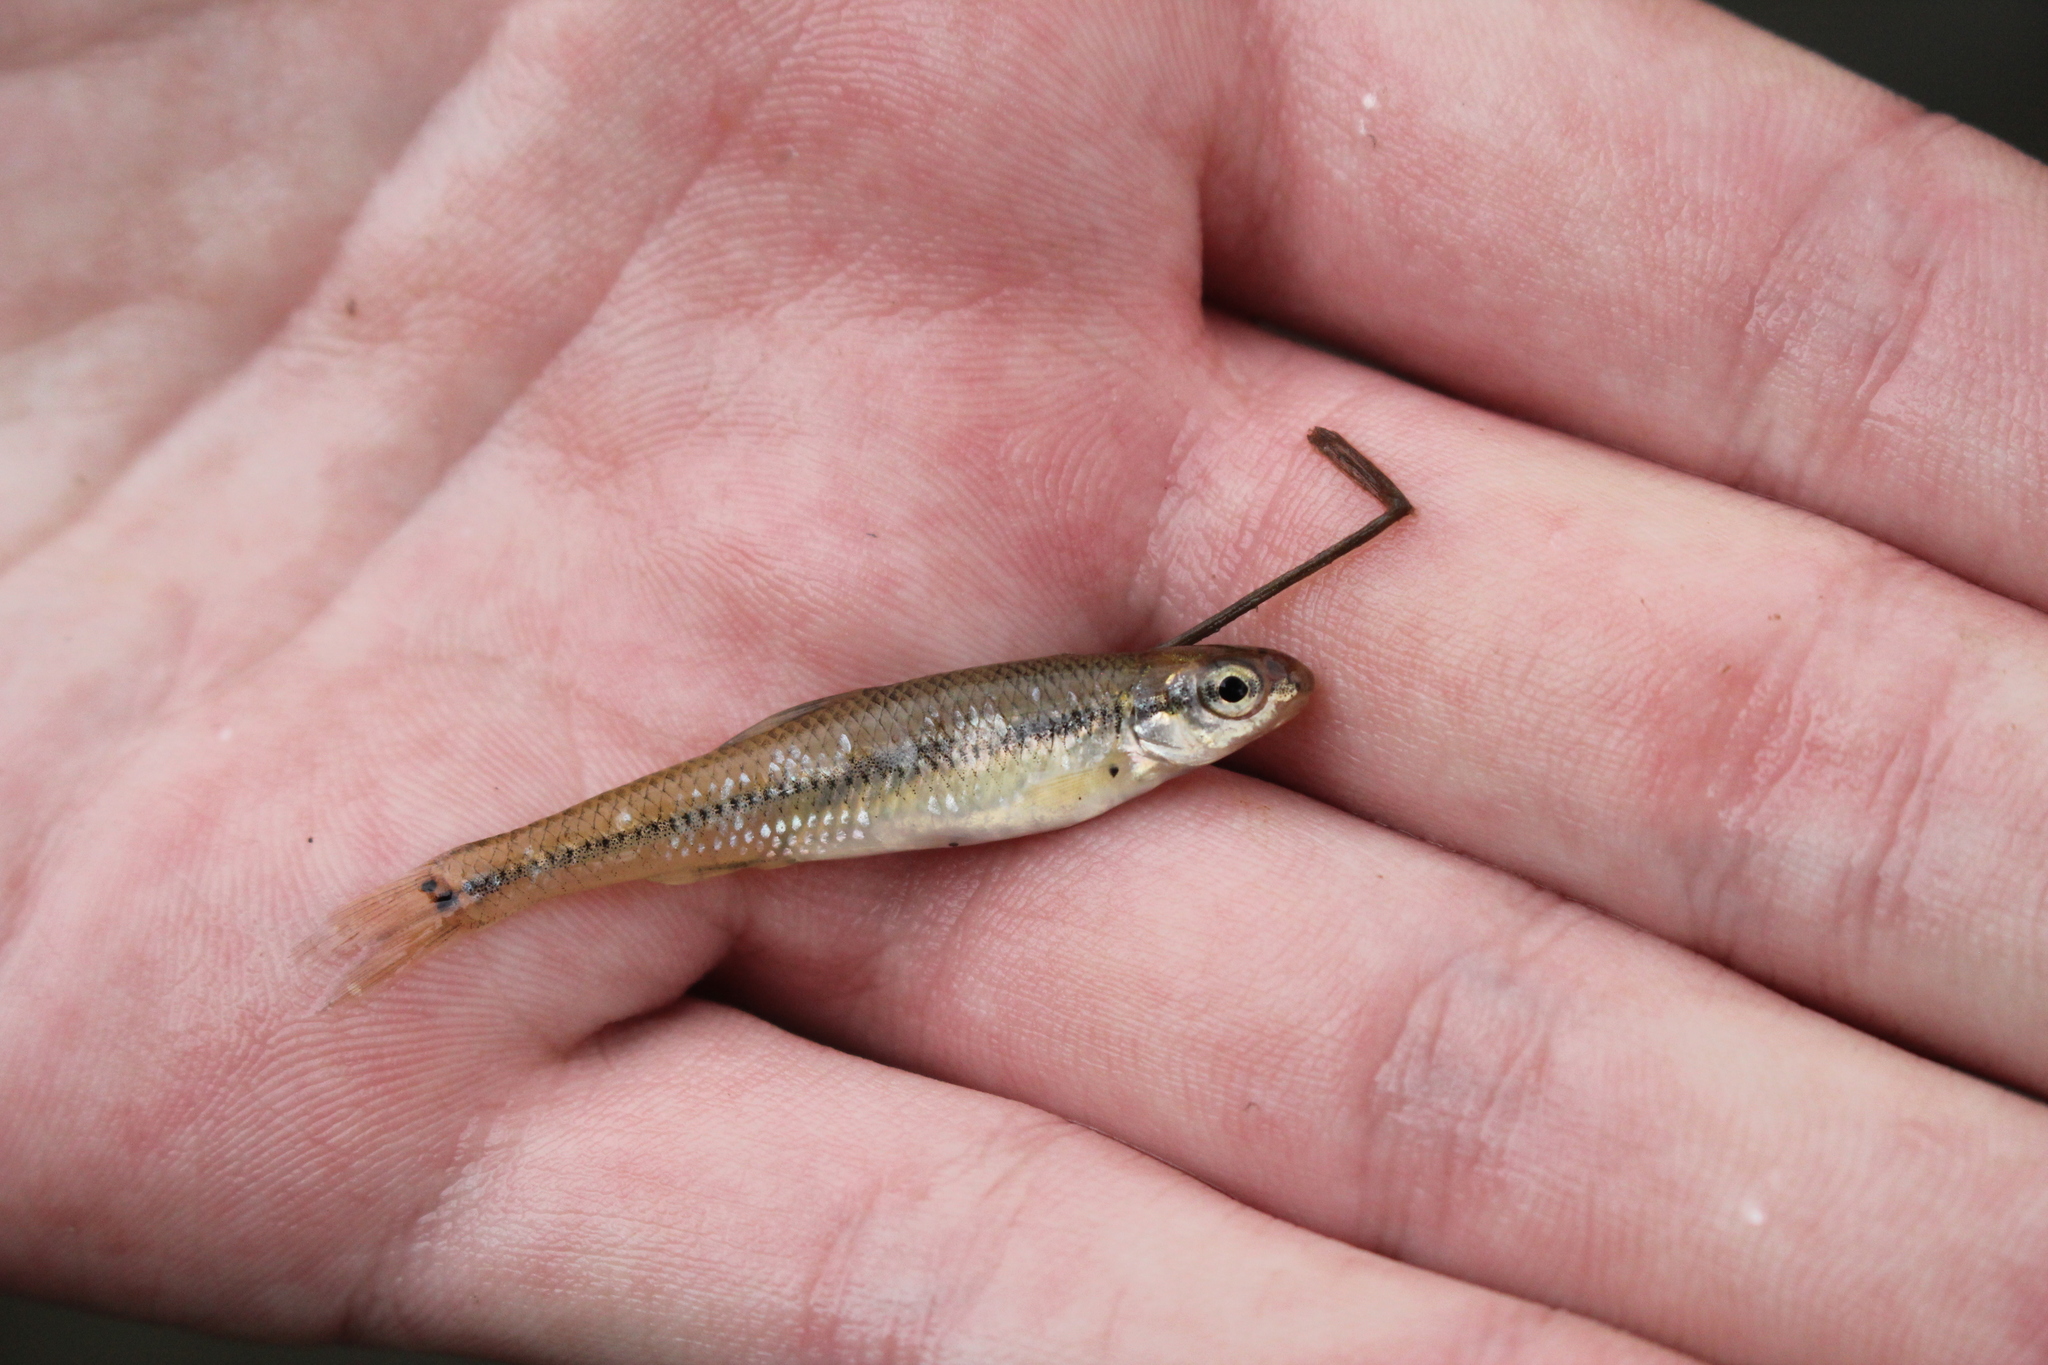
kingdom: Animalia
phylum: Chordata
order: Cypriniformes
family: Cyprinidae
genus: Pimephales
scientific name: Pimephales notatus
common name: Bluntnose minnow
